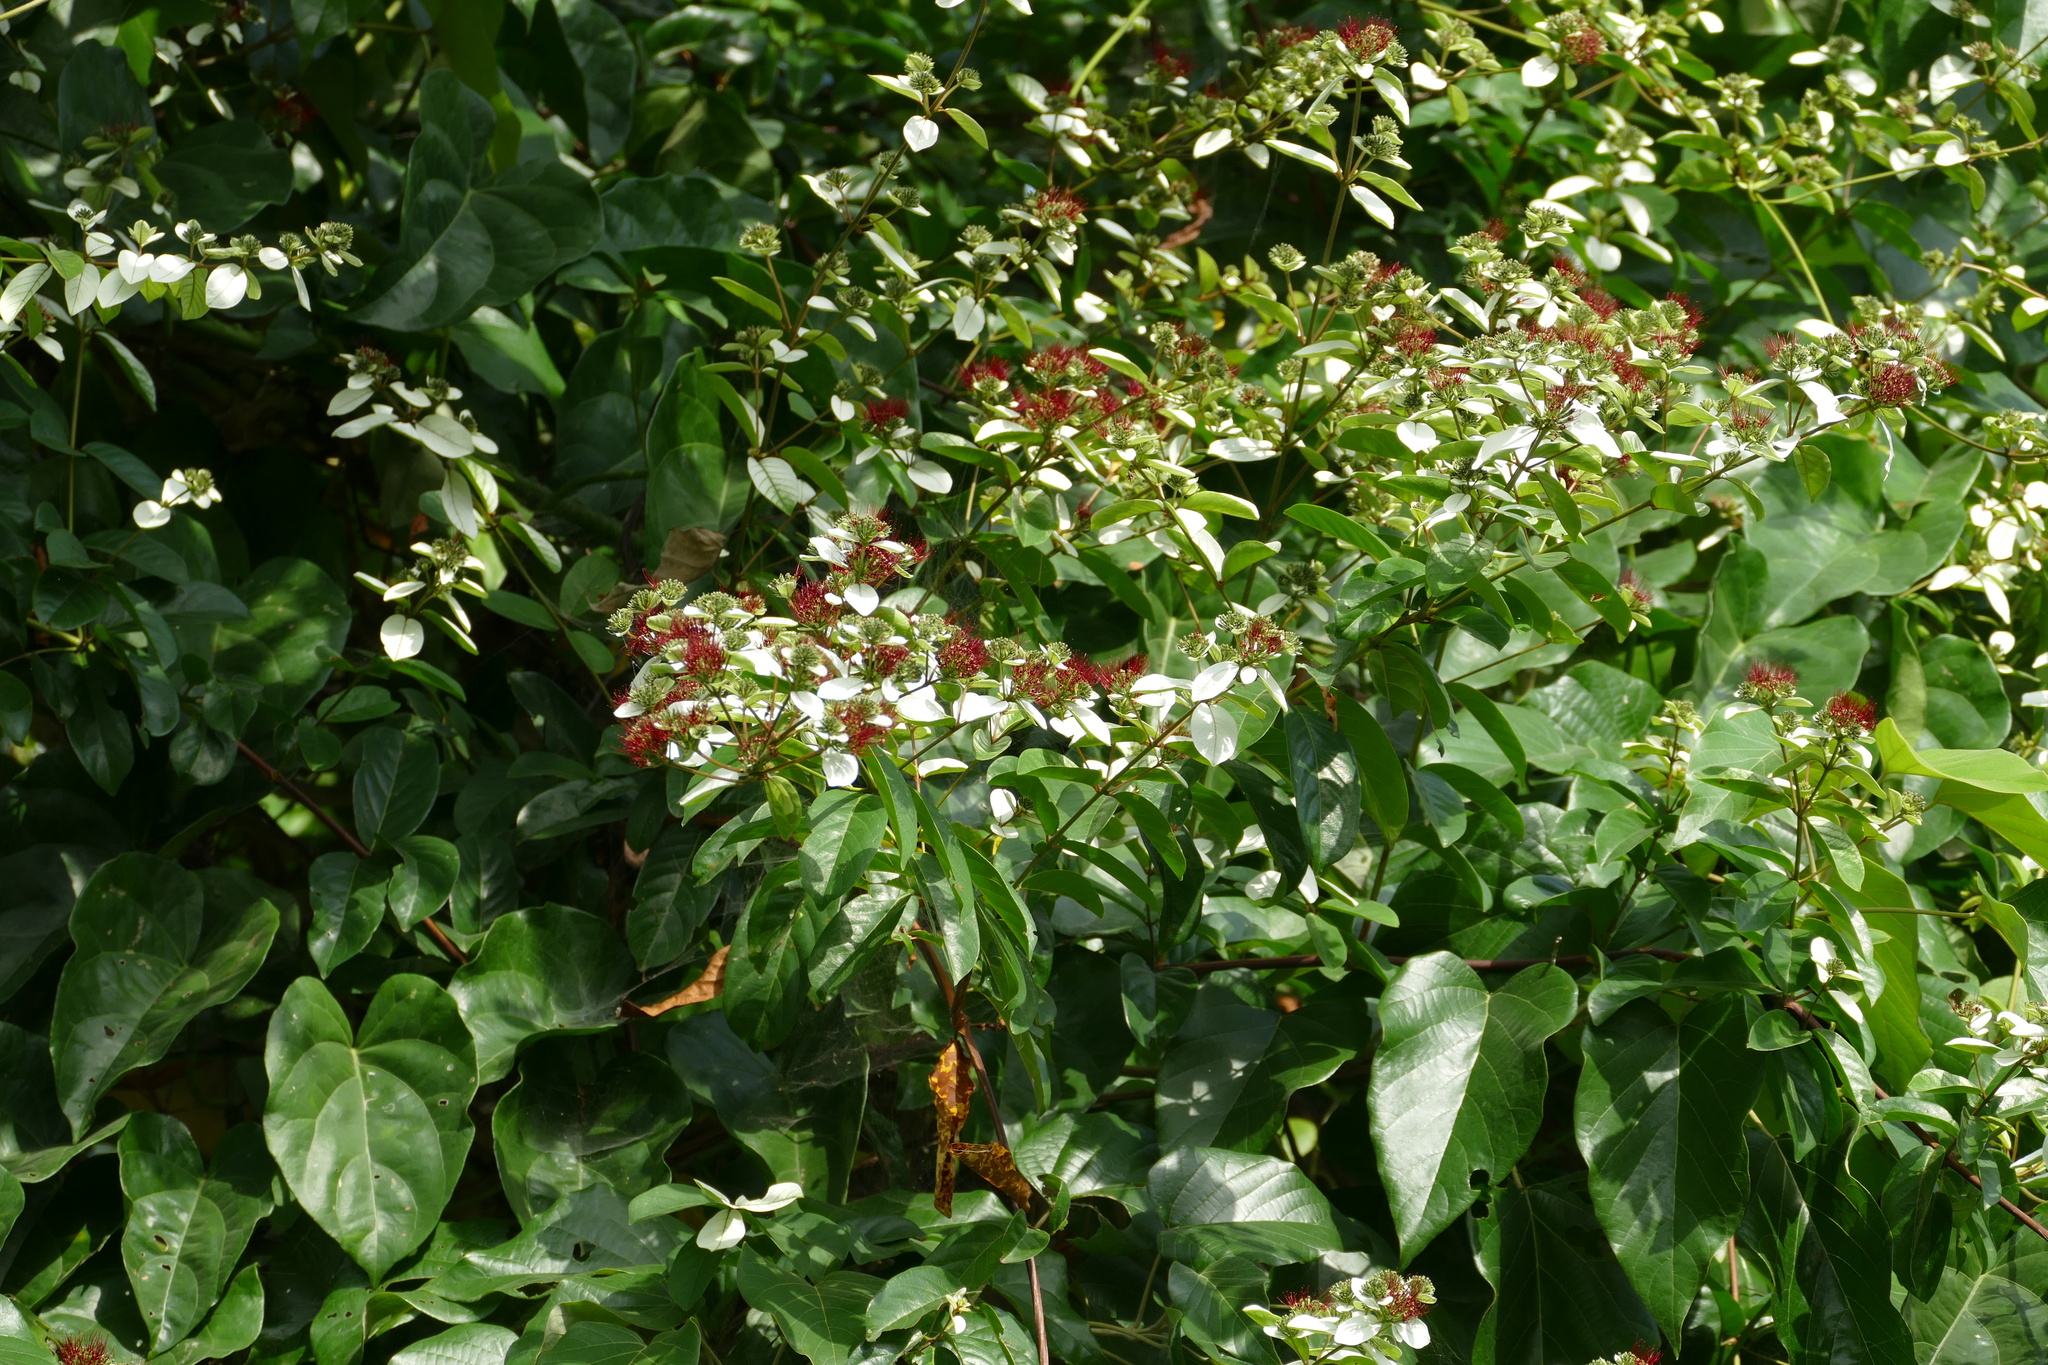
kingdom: Plantae
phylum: Tracheophyta
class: Magnoliopsida
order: Myrtales
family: Combretaceae
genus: Combretum
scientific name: Combretum racemosum
